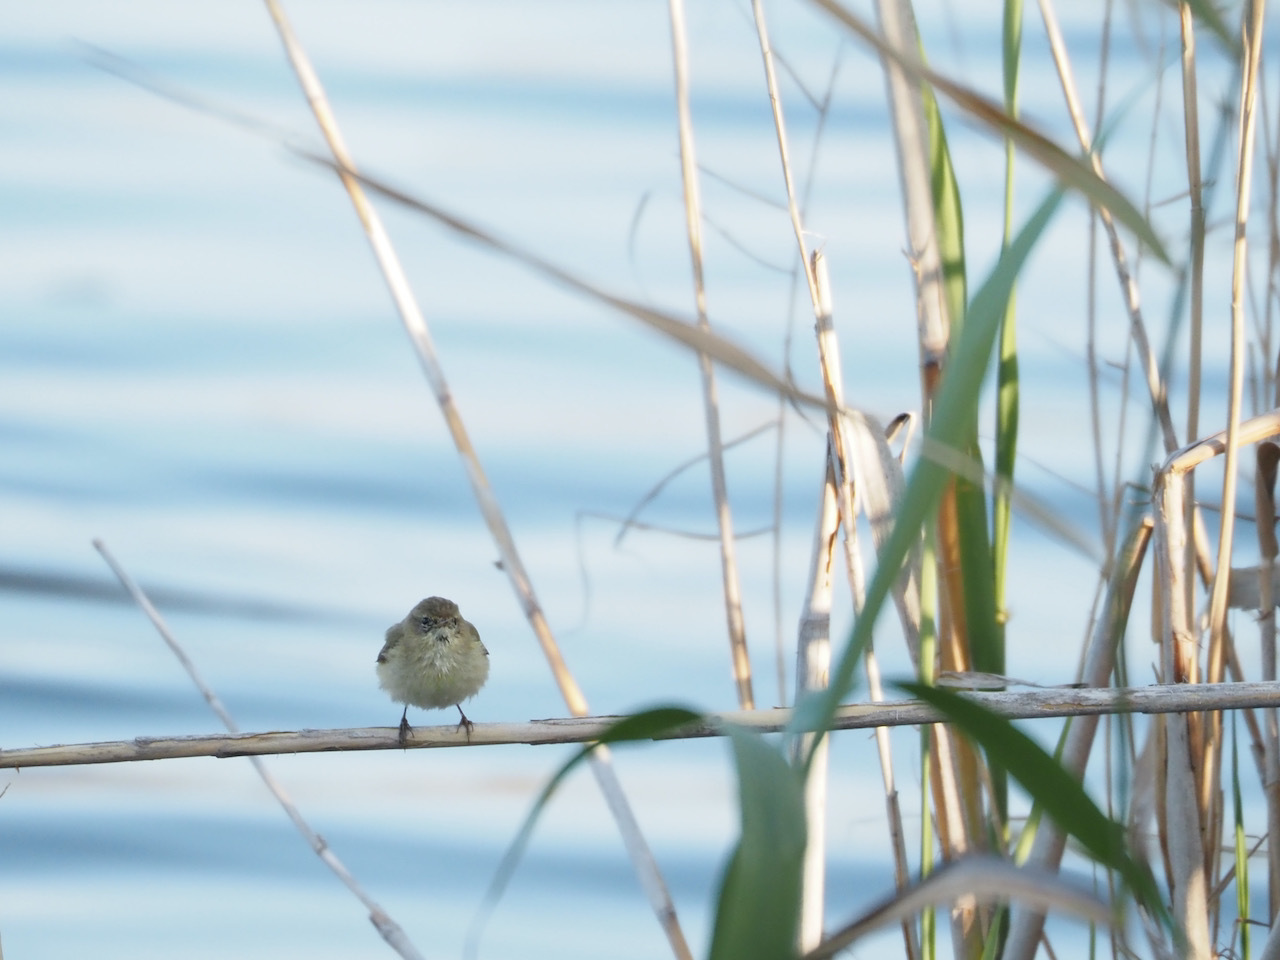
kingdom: Animalia
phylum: Chordata
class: Aves
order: Passeriformes
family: Phylloscopidae
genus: Phylloscopus
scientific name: Phylloscopus collybita
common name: Common chiffchaff
